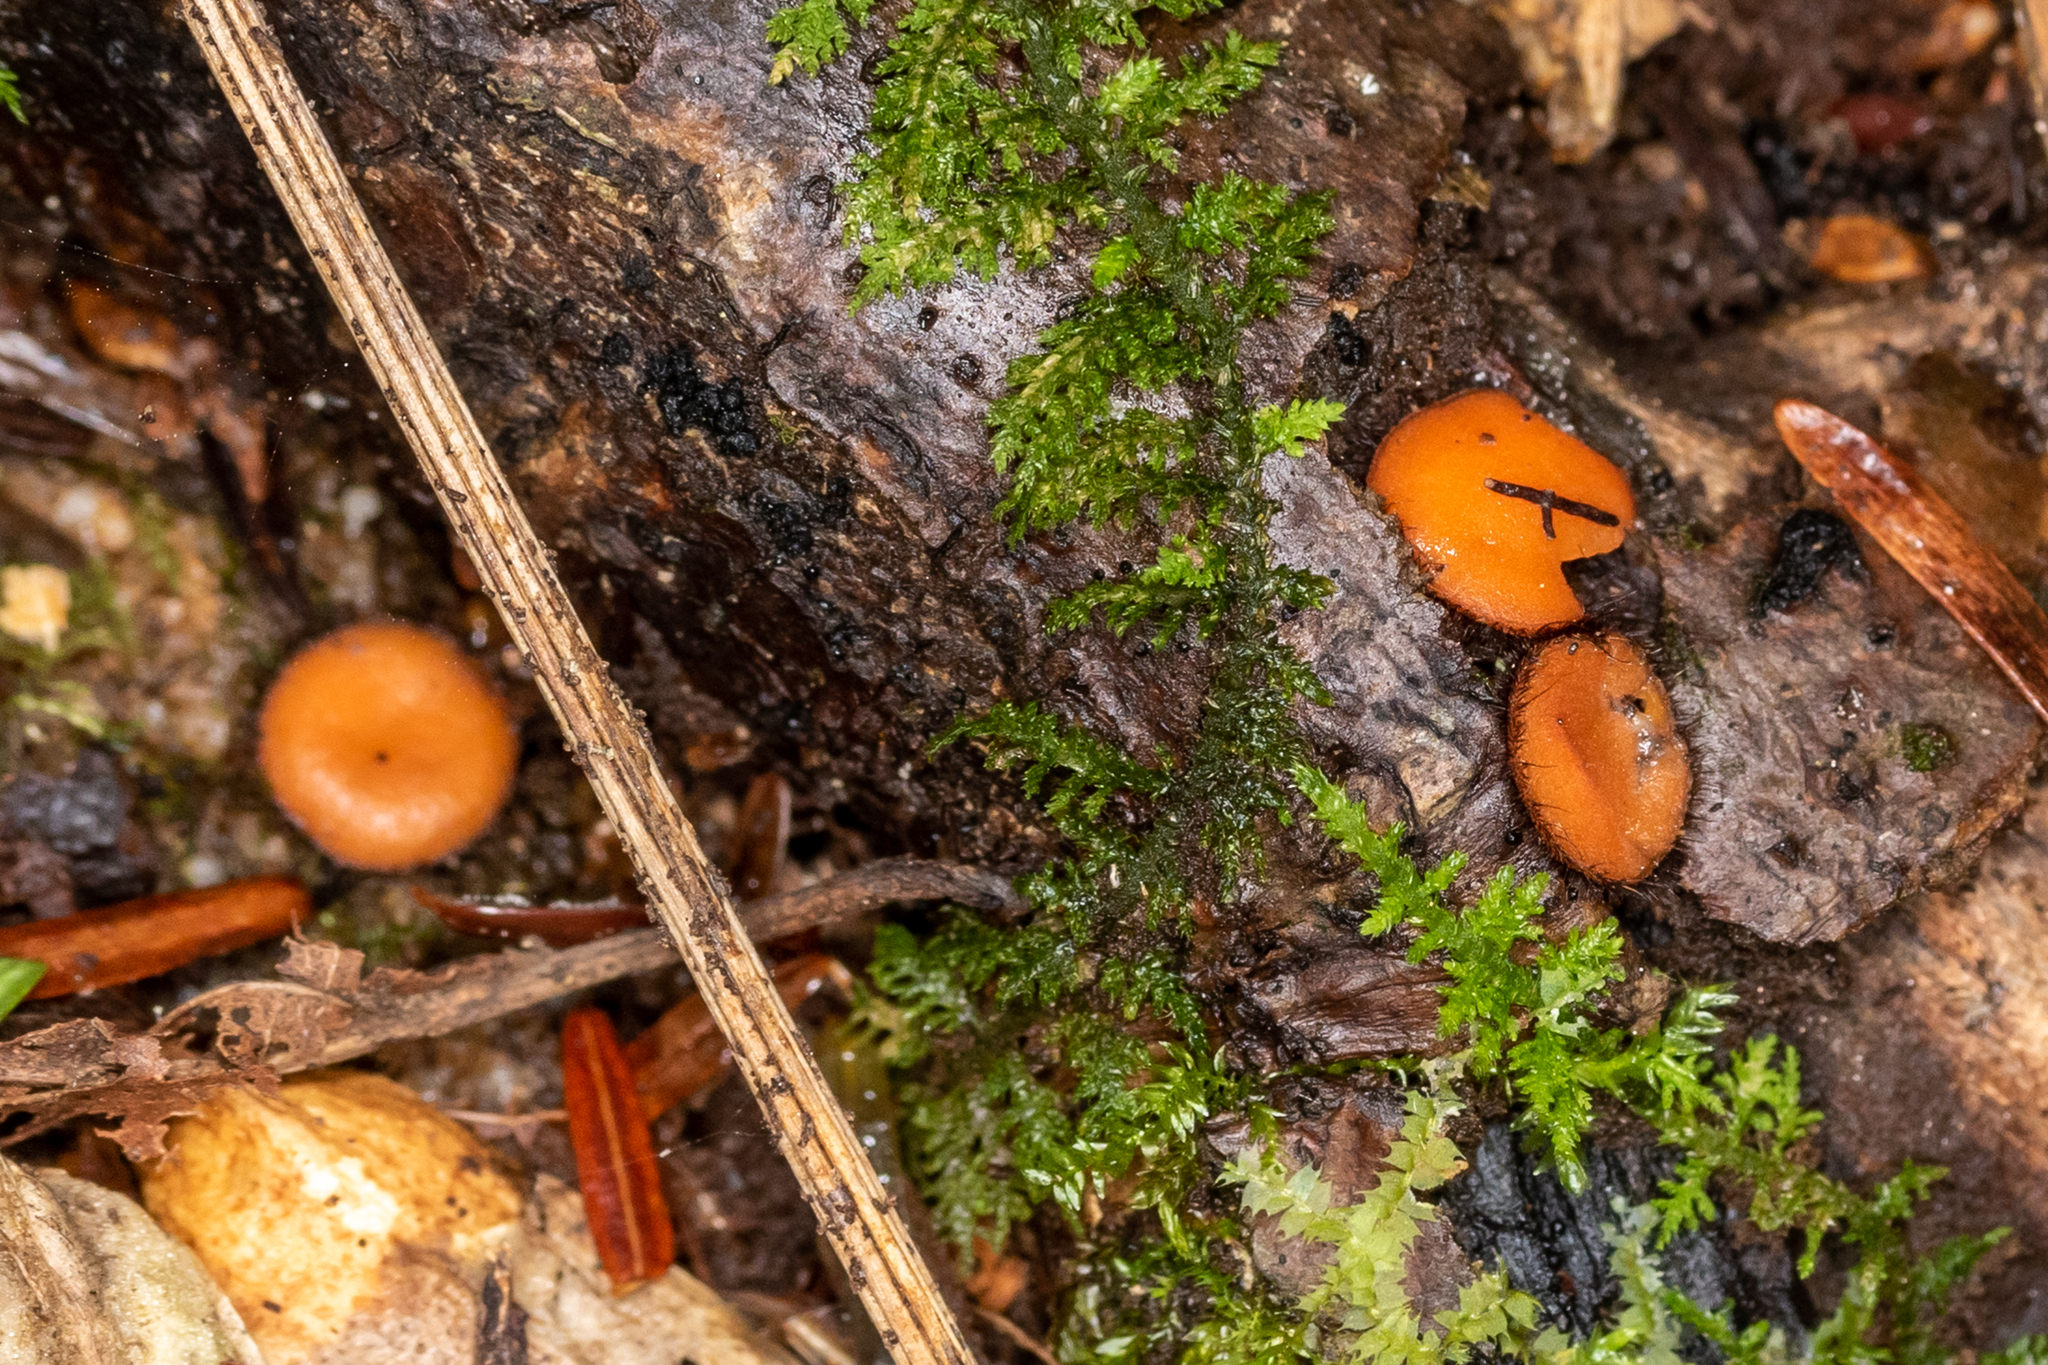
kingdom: Fungi
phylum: Ascomycota
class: Pezizomycetes
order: Pezizales
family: Pyronemataceae
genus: Scutellinia
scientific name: Scutellinia colensoi
